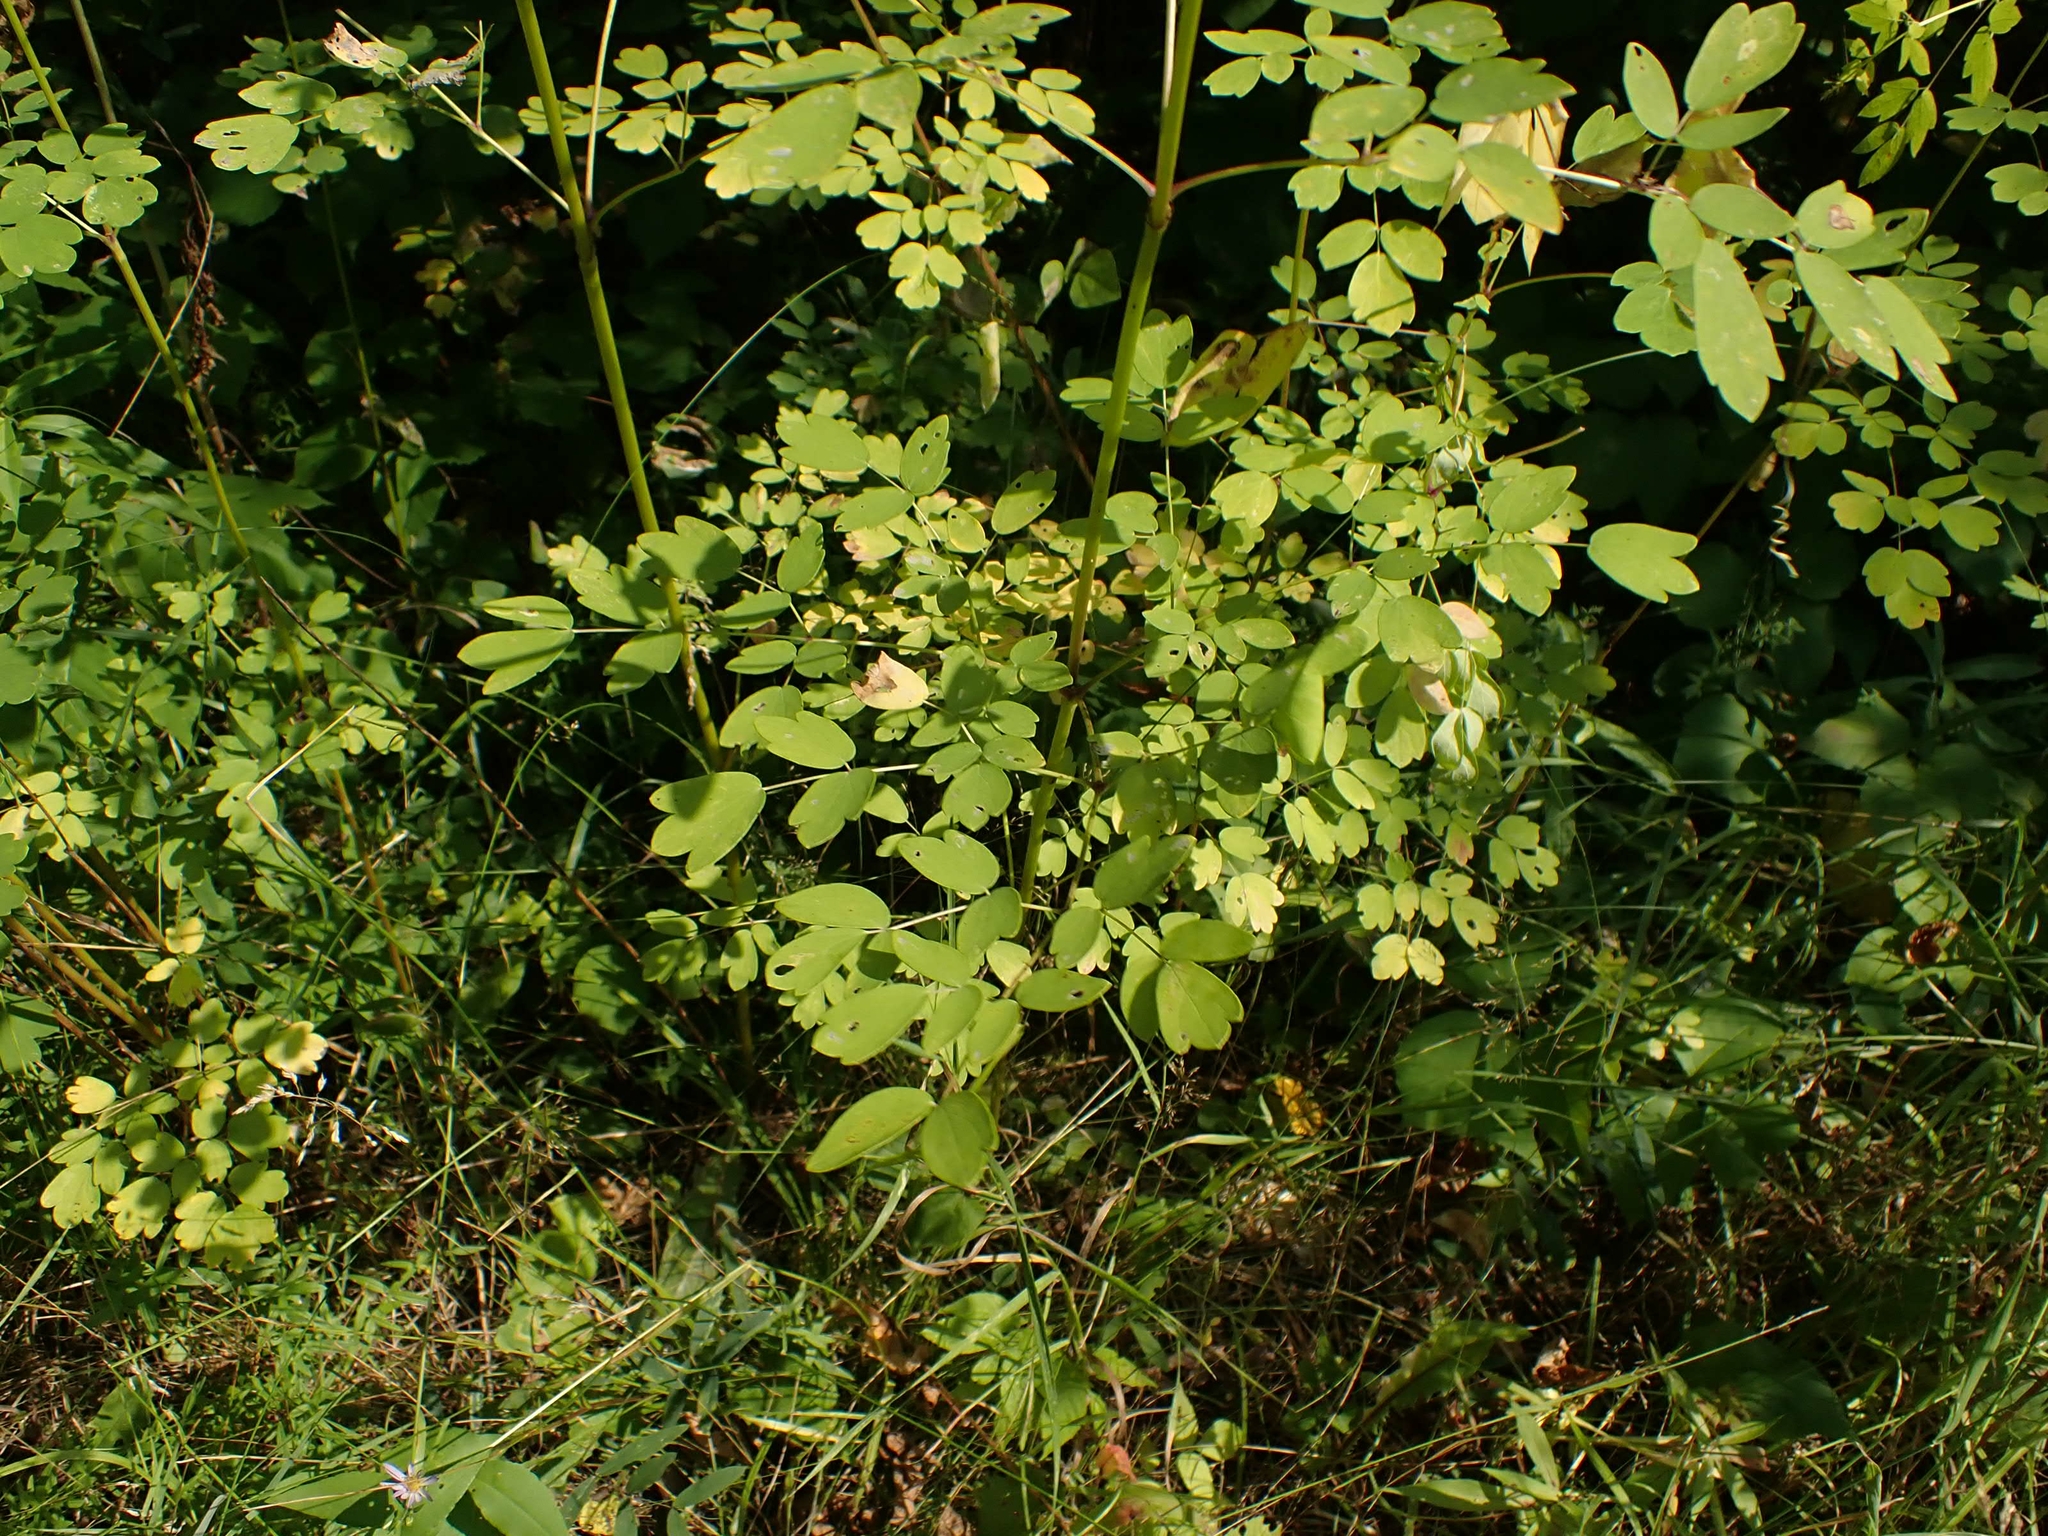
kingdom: Plantae
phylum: Tracheophyta
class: Magnoliopsida
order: Ranunculales
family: Ranunculaceae
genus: Thalictrum
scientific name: Thalictrum dasycarpum
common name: Purple meadow-rue
